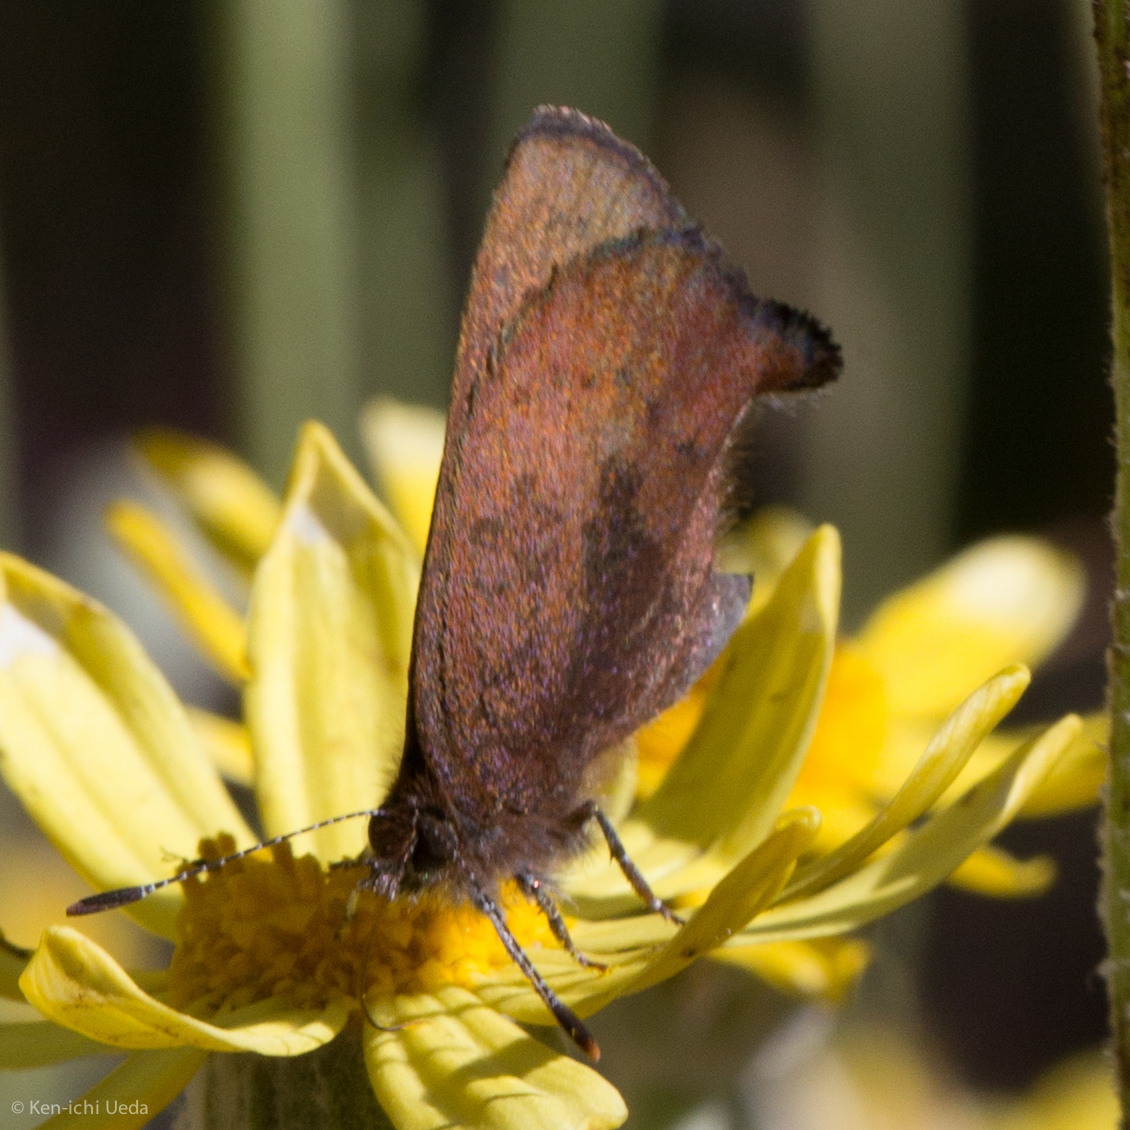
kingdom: Animalia
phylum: Arthropoda
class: Insecta
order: Lepidoptera
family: Lycaenidae
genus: Incisalia
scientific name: Incisalia irioides
